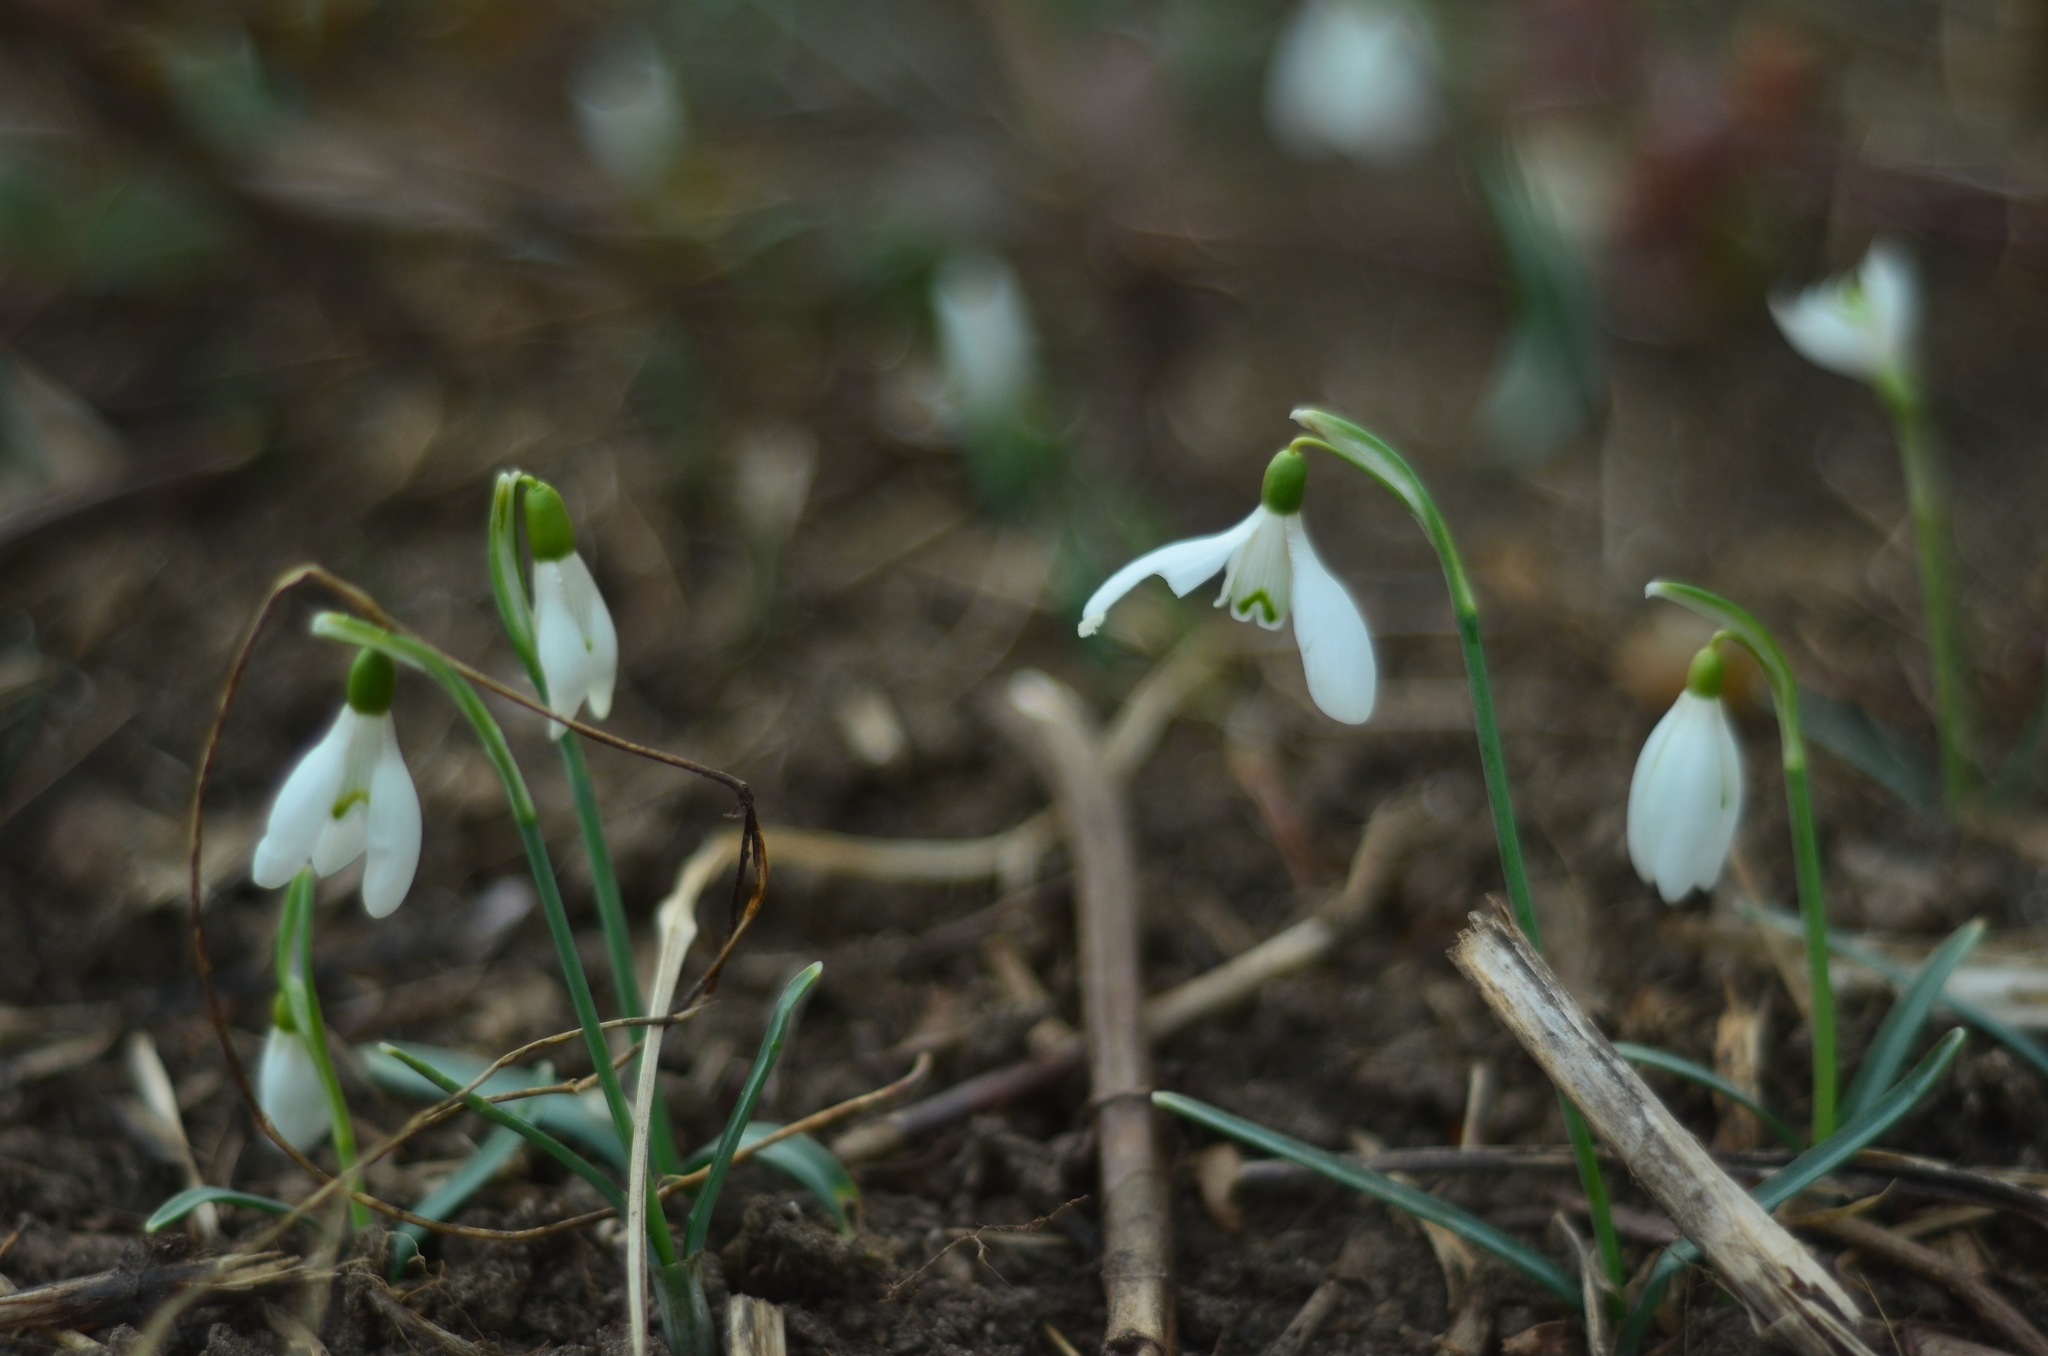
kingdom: Plantae
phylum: Tracheophyta
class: Liliopsida
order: Asparagales
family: Amaryllidaceae
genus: Galanthus
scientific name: Galanthus nivalis
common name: Snowdrop
